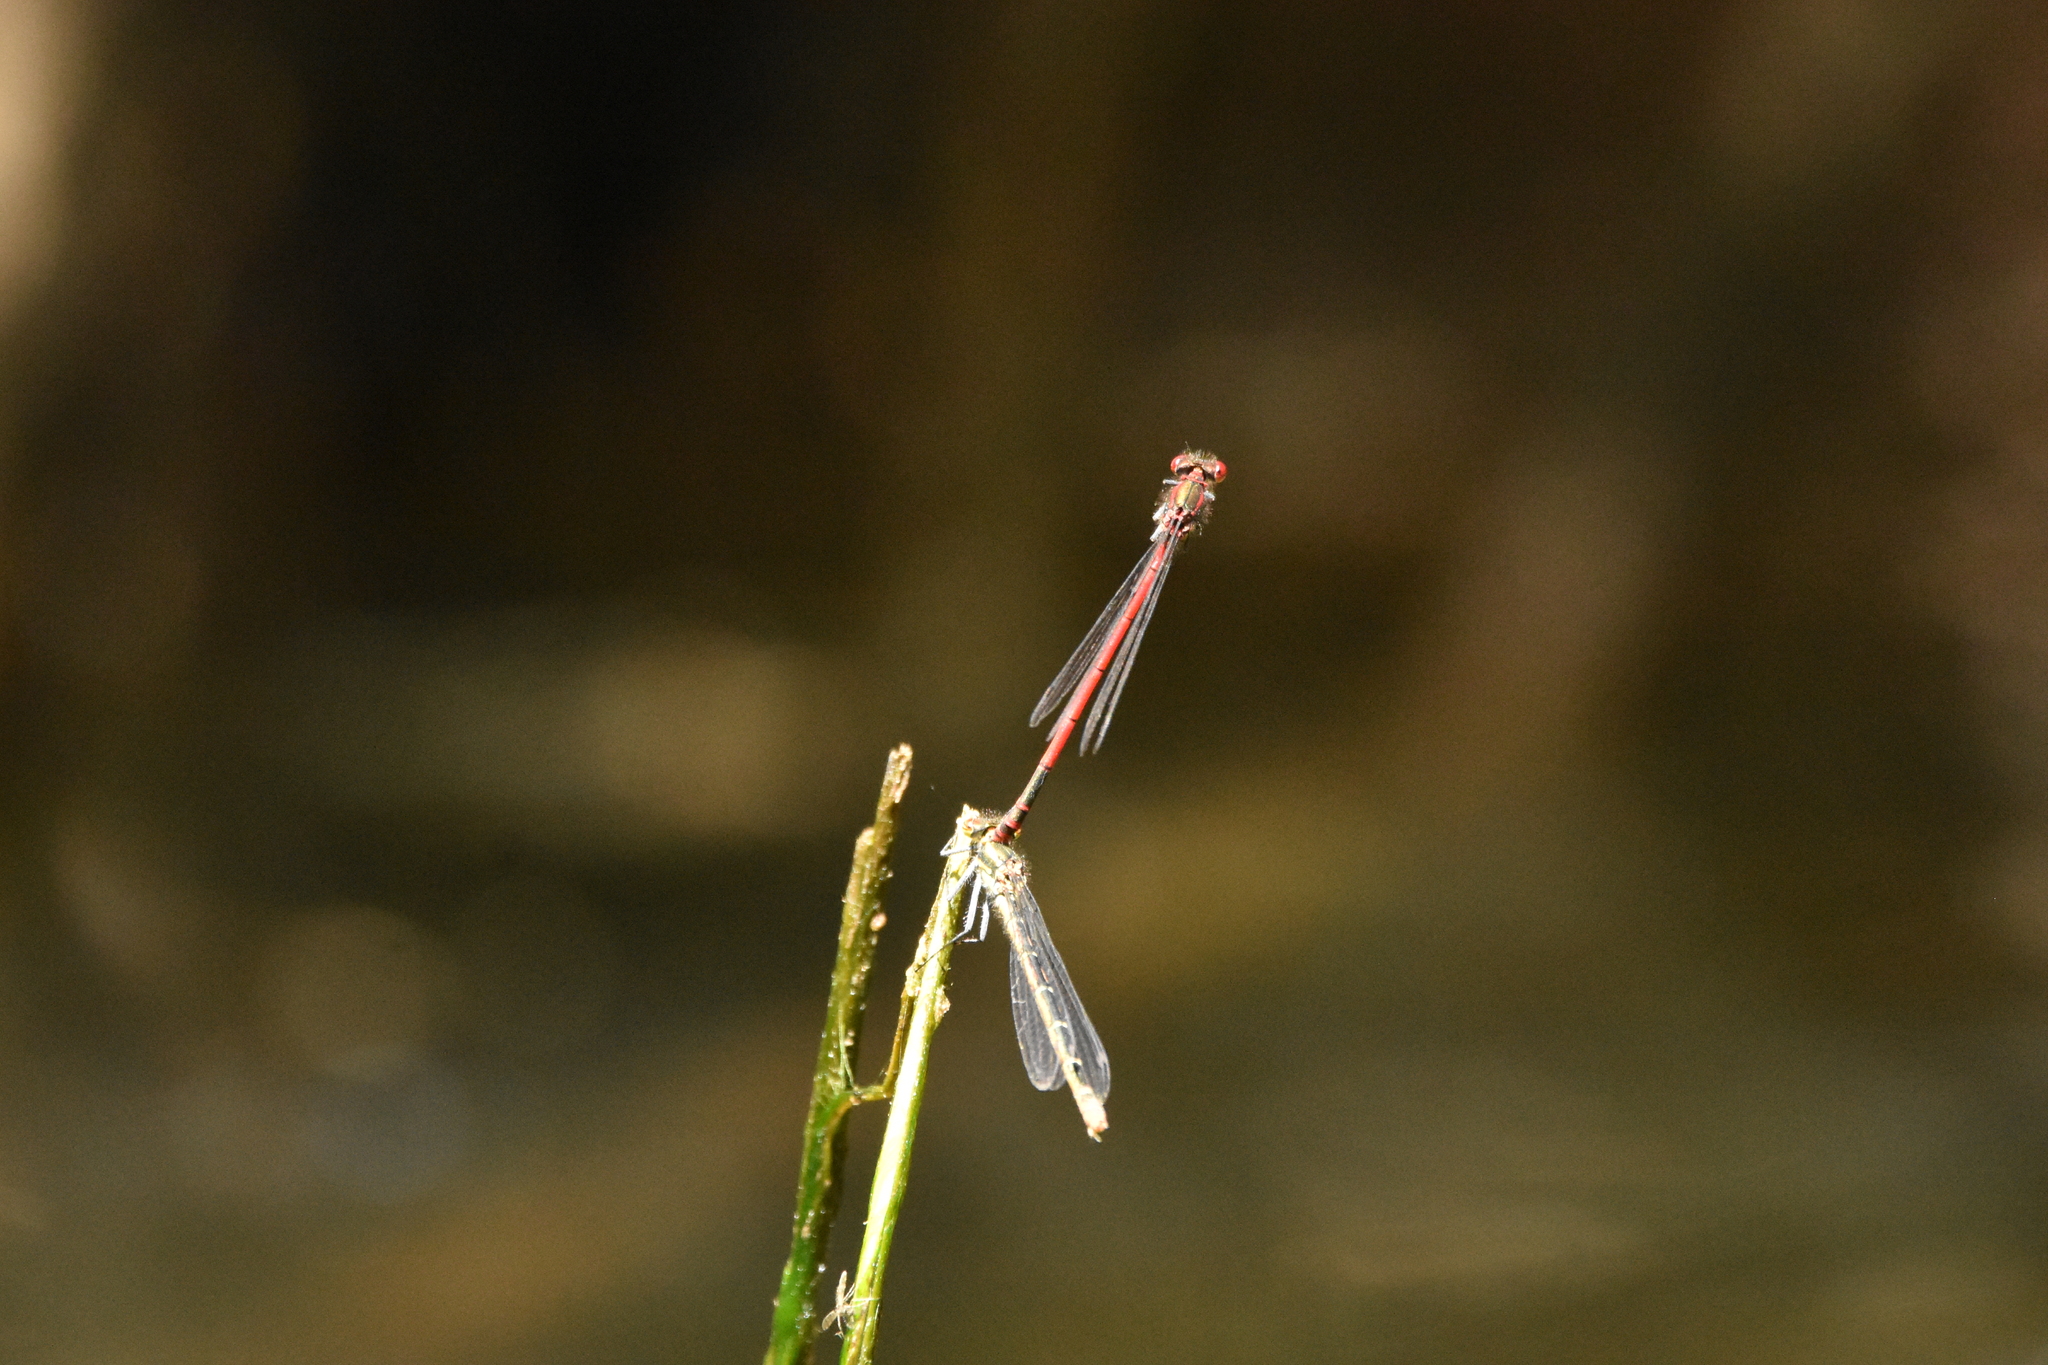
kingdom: Animalia
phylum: Arthropoda
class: Insecta
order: Odonata
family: Coenagrionidae
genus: Pyrrhosoma
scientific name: Pyrrhosoma nymphula
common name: Large red damsel
